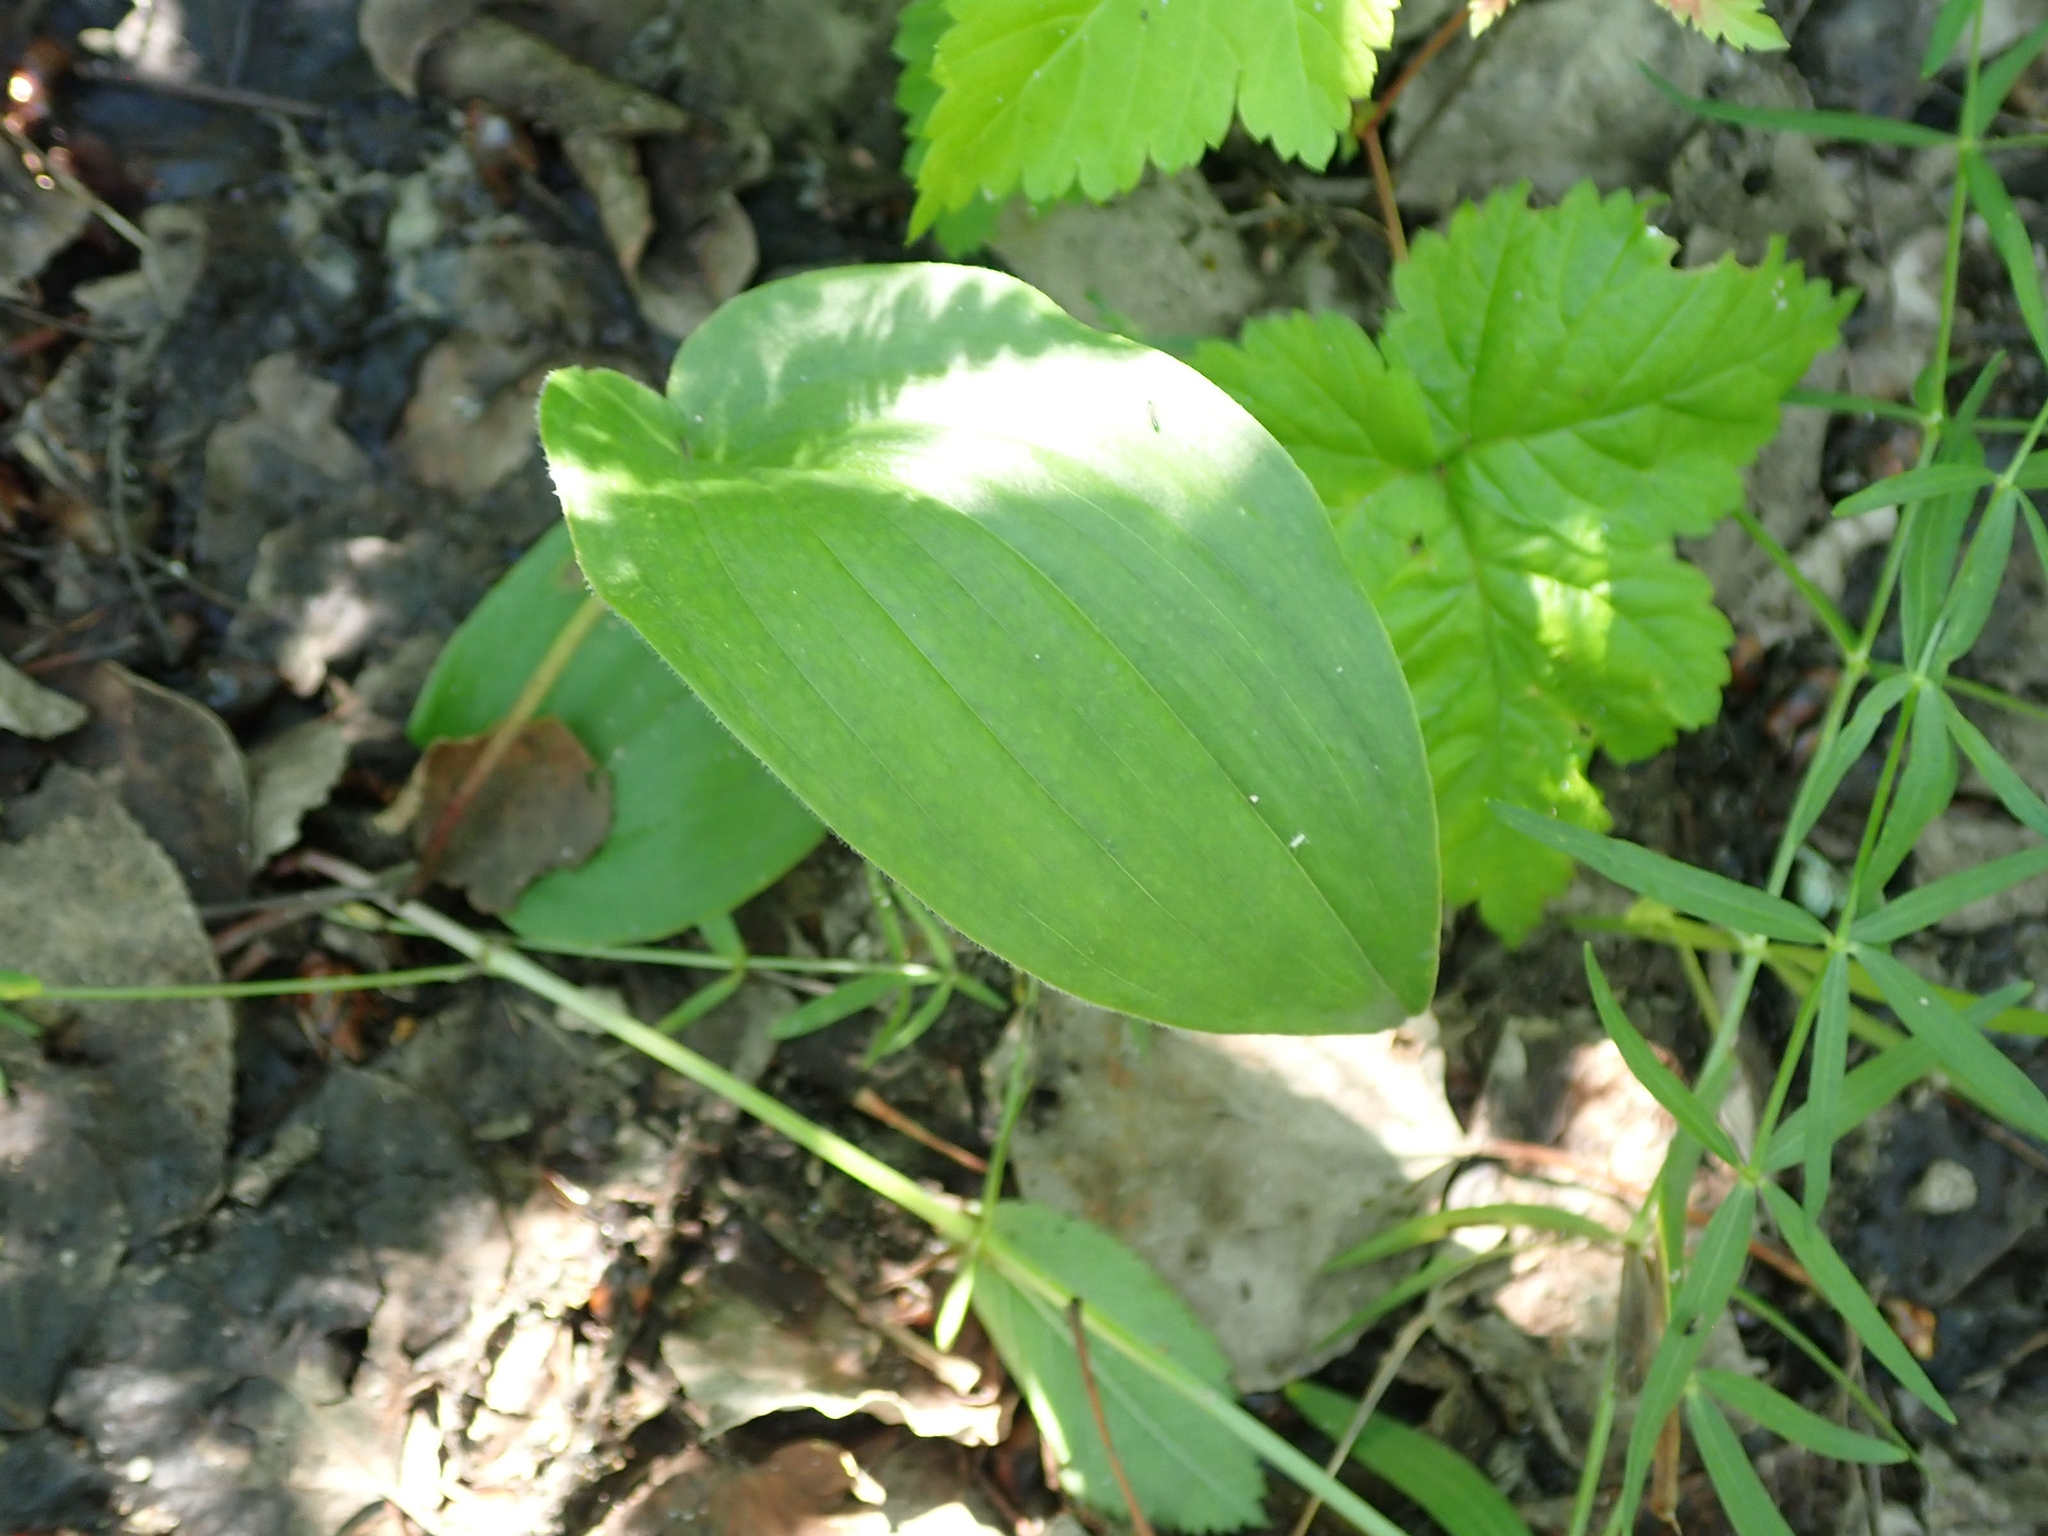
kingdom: Plantae
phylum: Tracheophyta
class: Liliopsida
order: Asparagales
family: Asparagaceae
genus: Maianthemum
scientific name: Maianthemum canadense
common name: False lily-of-the-valley
